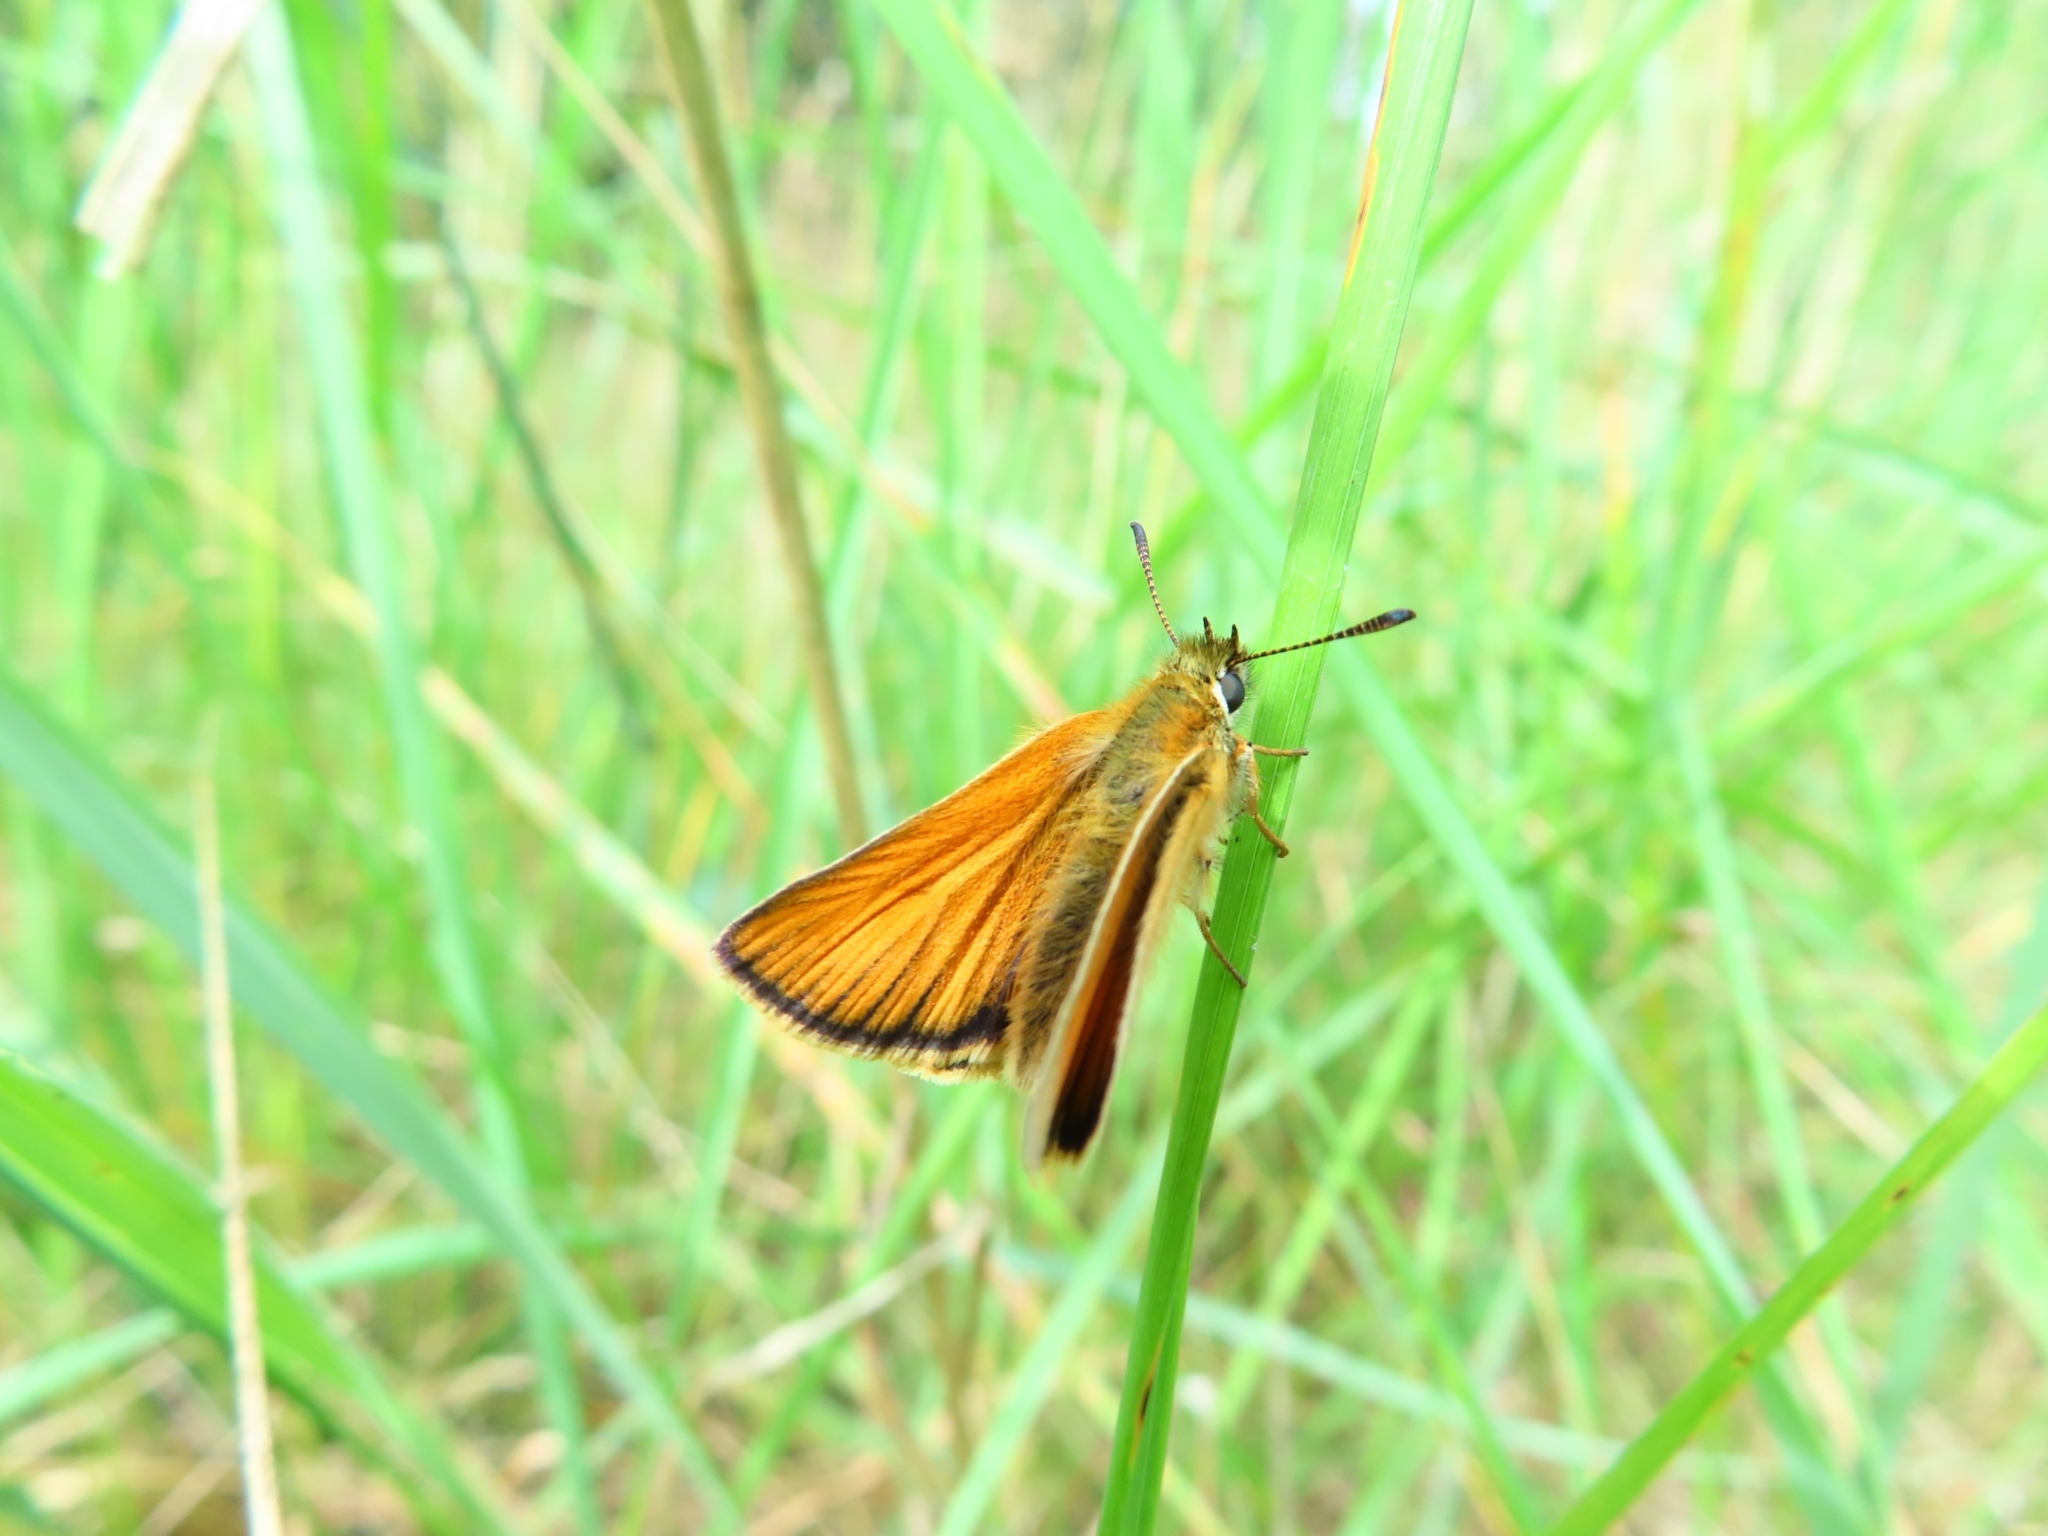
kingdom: Animalia
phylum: Arthropoda
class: Insecta
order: Lepidoptera
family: Hesperiidae
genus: Thymelicus
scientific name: Thymelicus lineola
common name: Essex skipper
